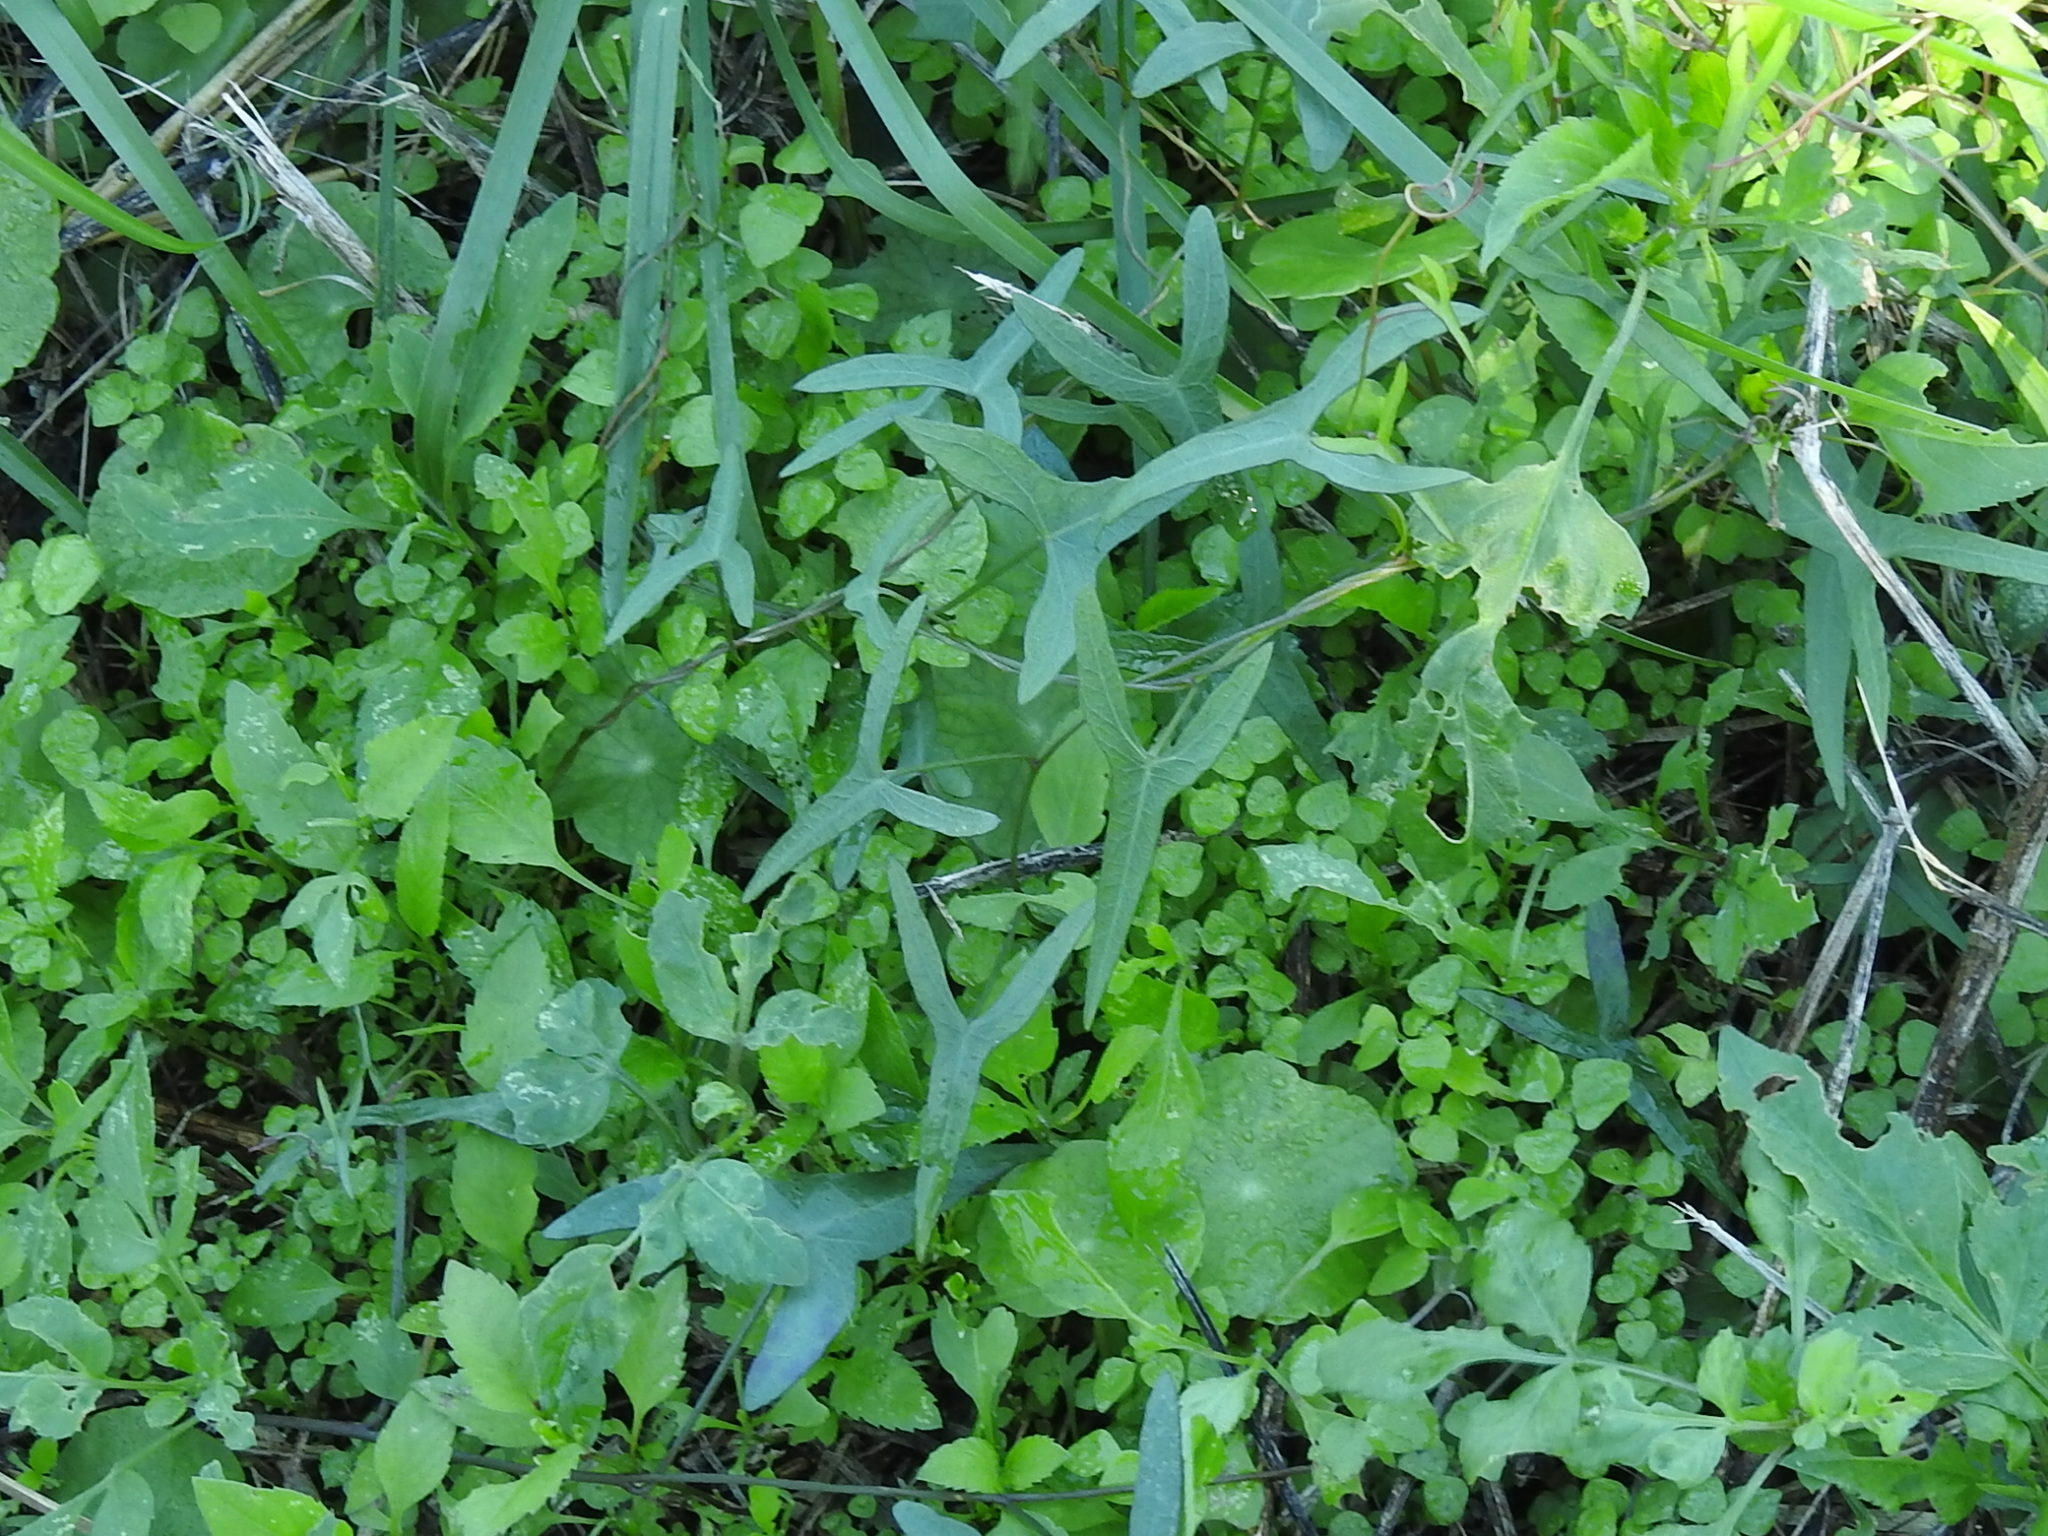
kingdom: Plantae
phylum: Tracheophyta
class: Magnoliopsida
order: Solanales
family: Convolvulaceae
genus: Ipomoea
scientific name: Ipomoea sagittata
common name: Saltmarsh morning glory
